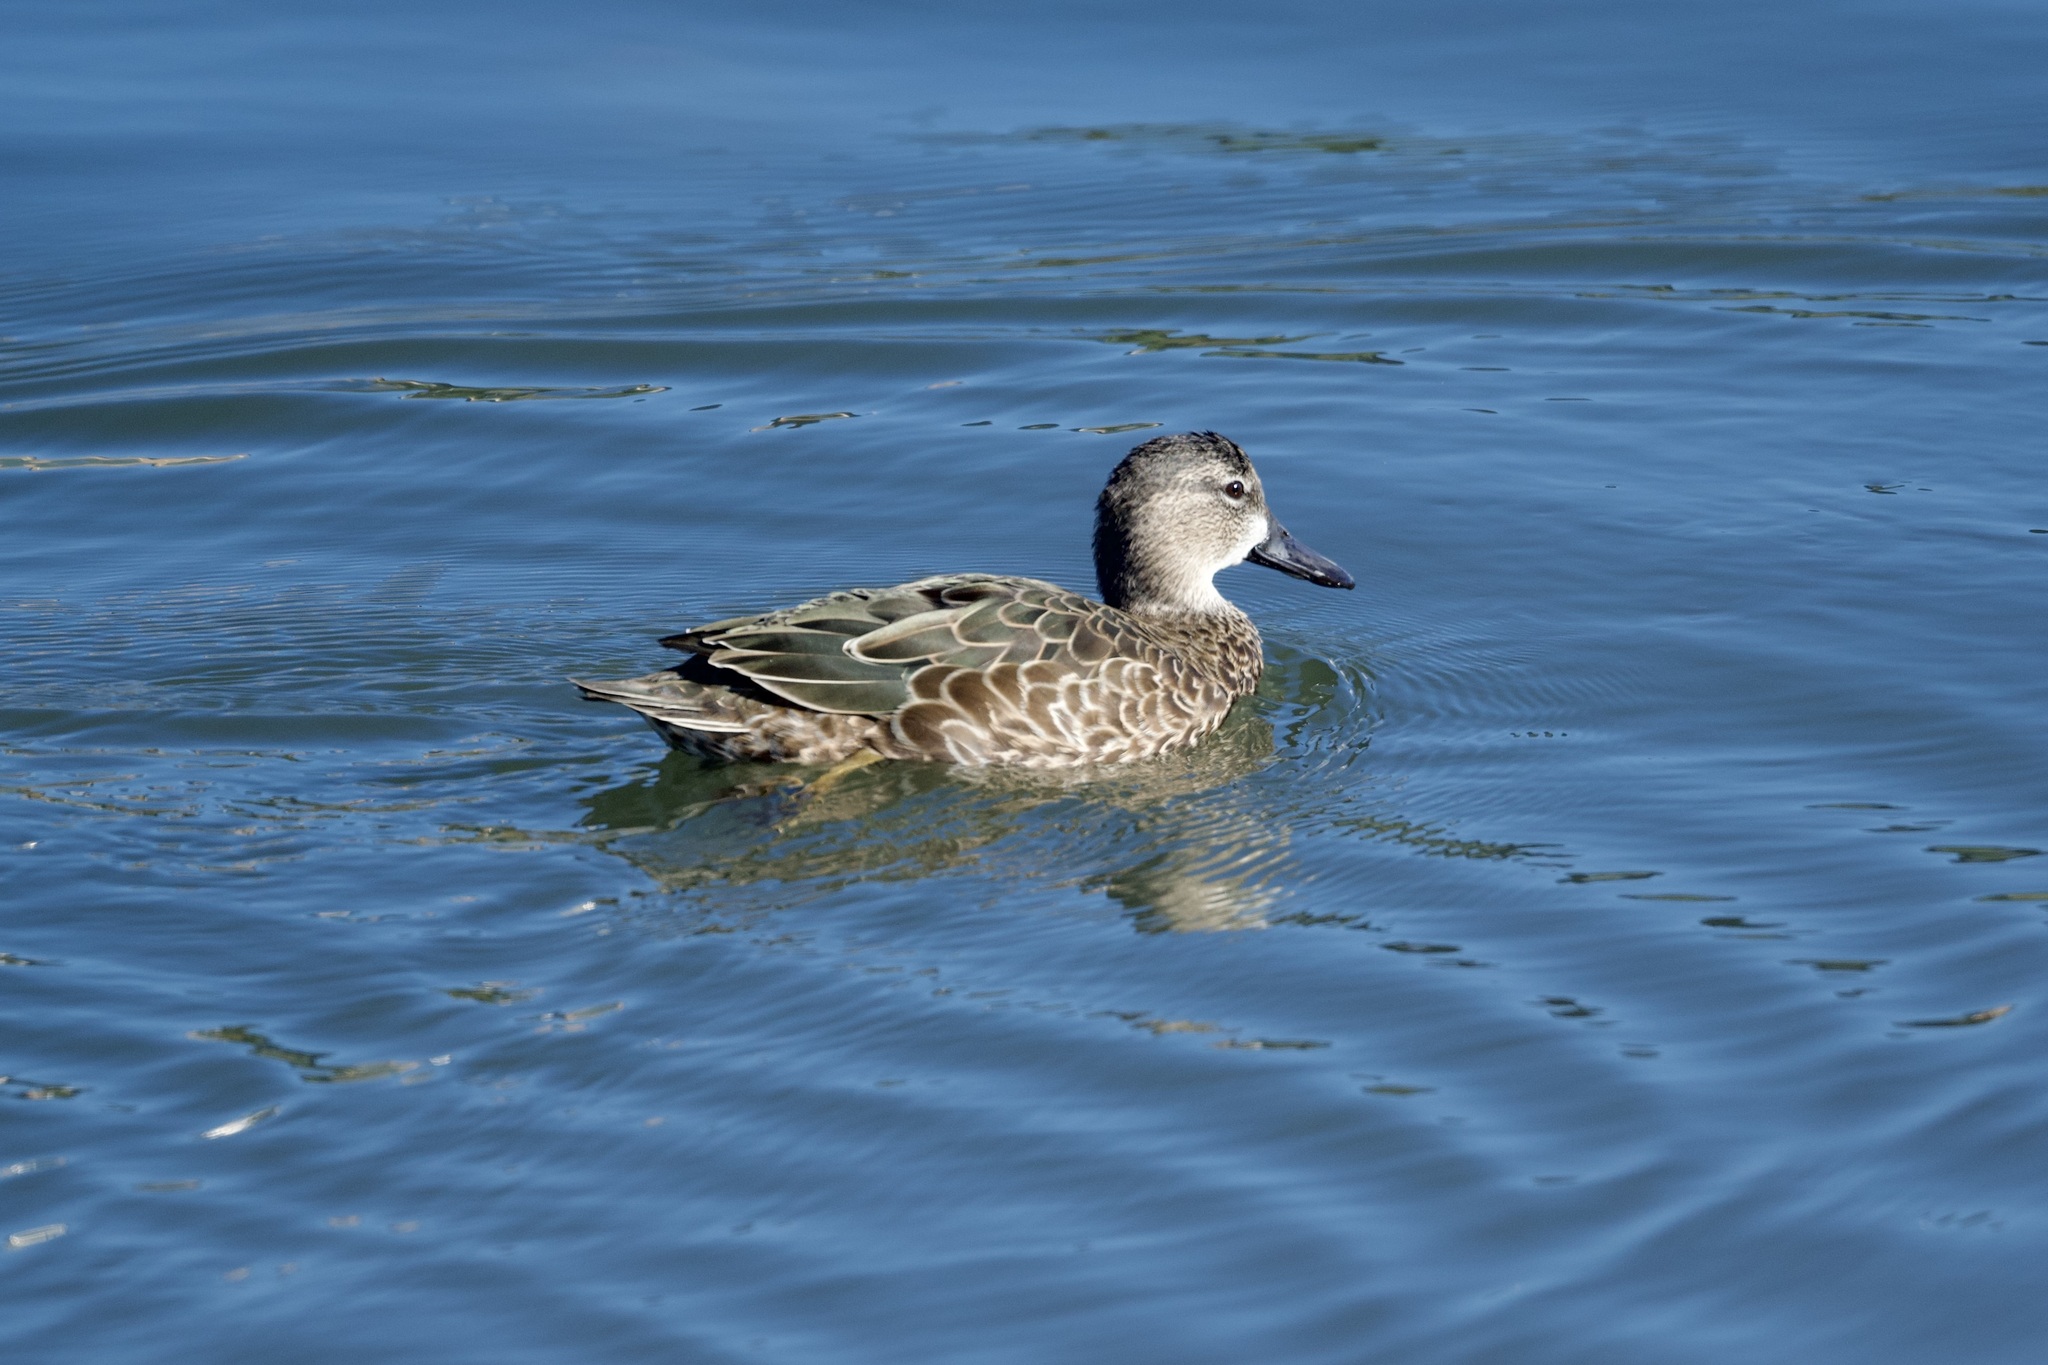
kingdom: Animalia
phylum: Chordata
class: Aves
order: Anseriformes
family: Anatidae
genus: Spatula
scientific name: Spatula discors
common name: Blue-winged teal
